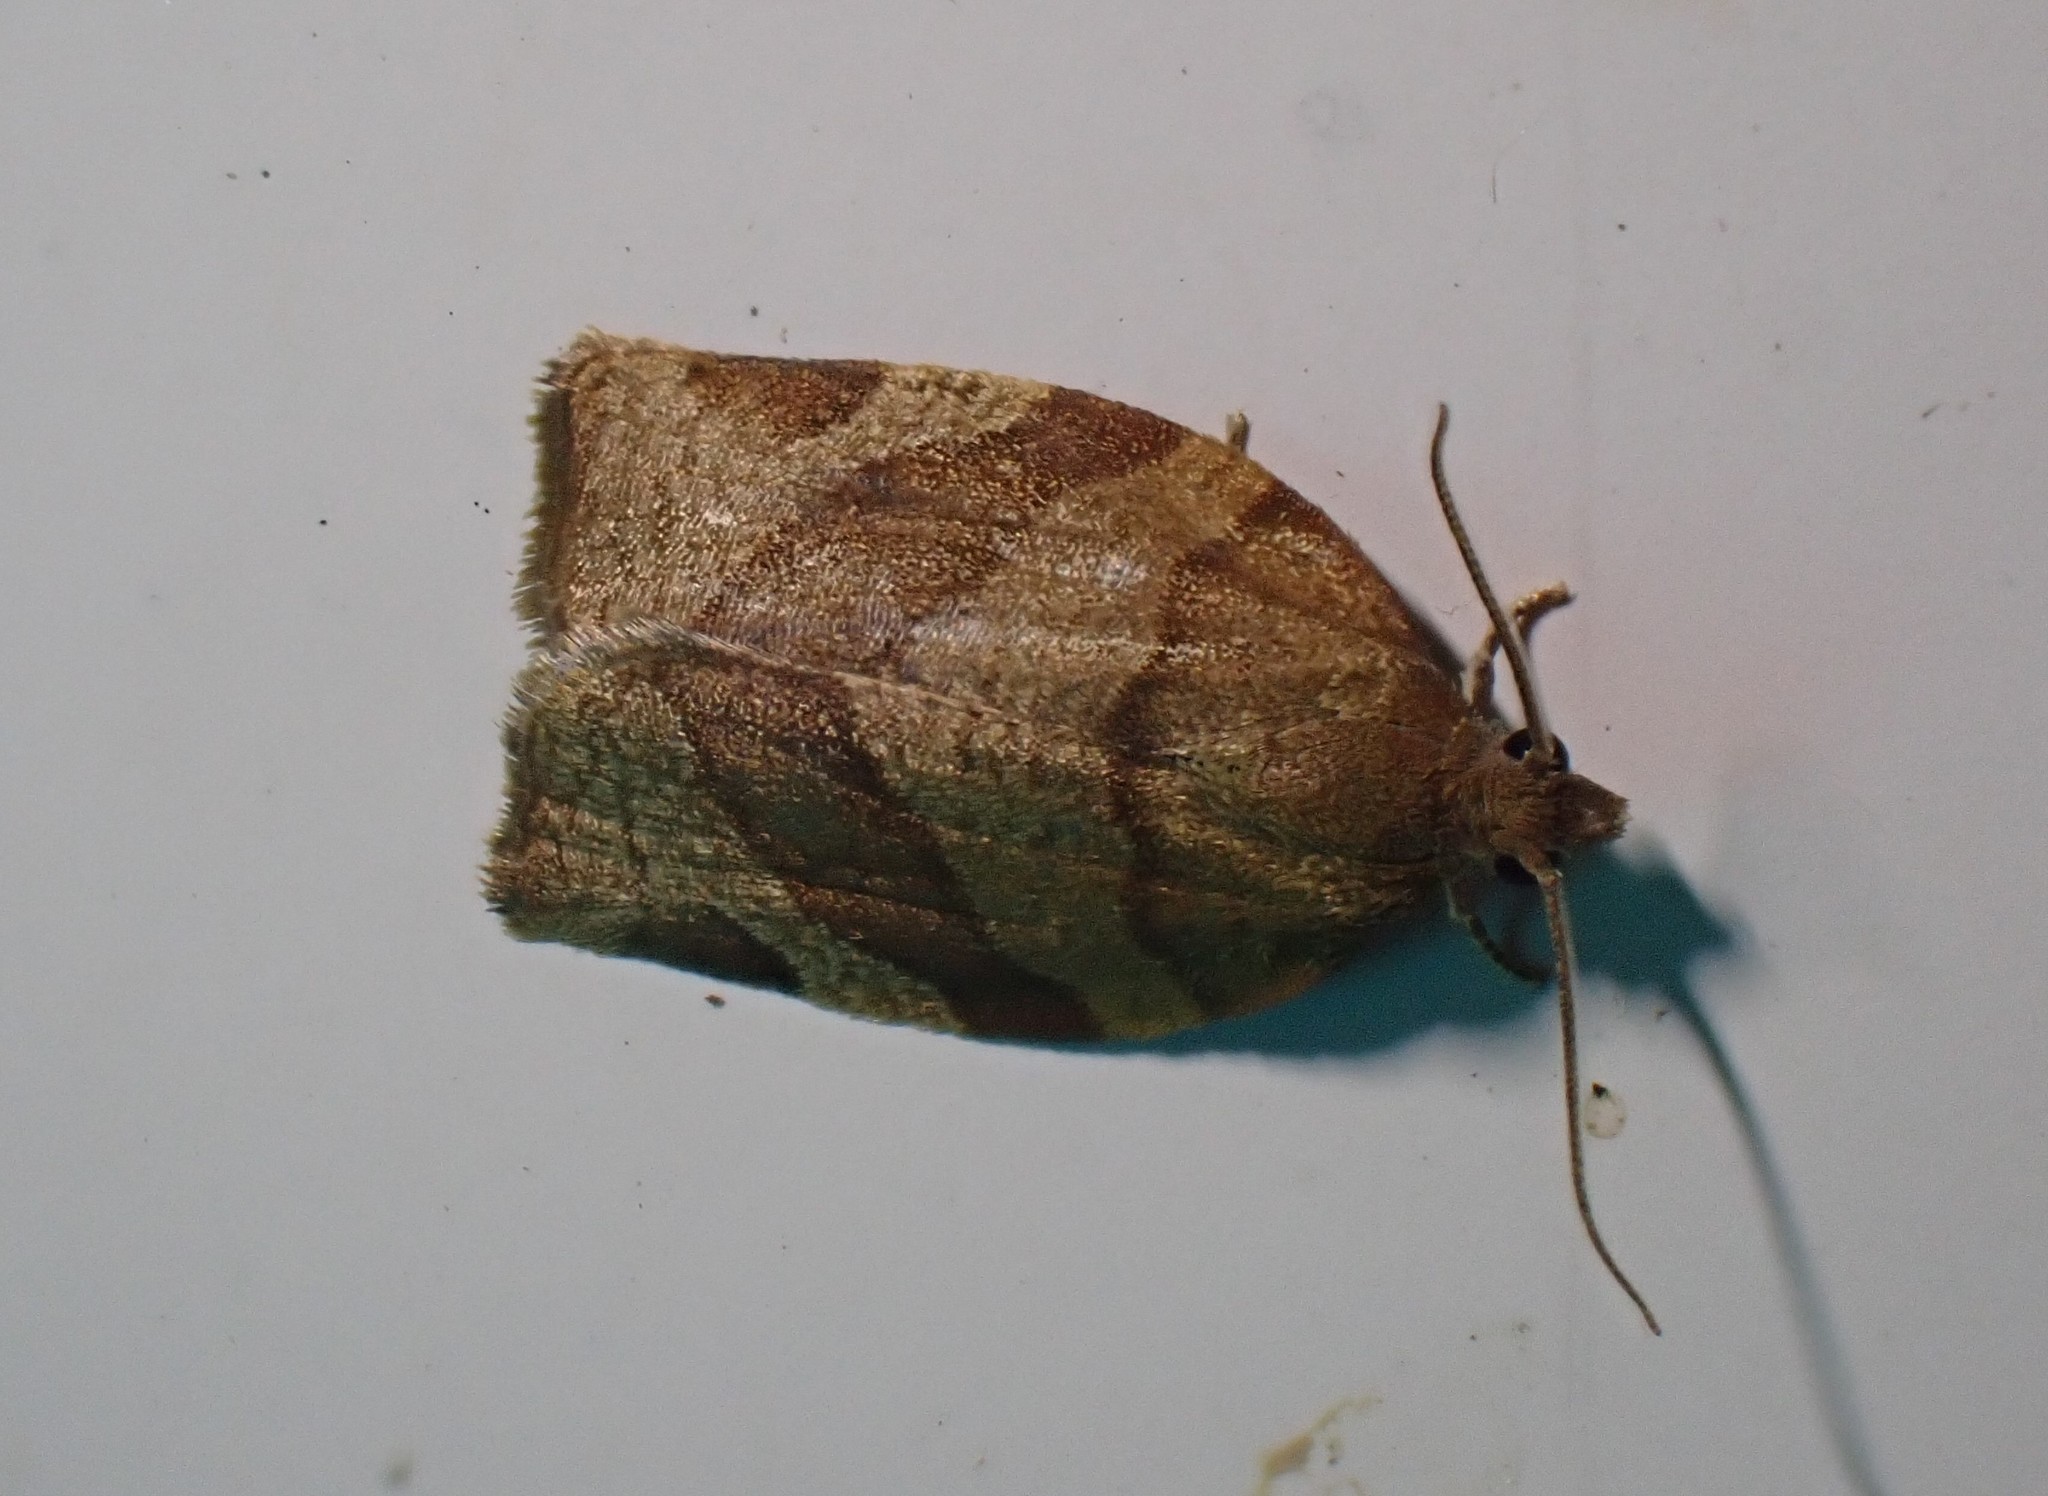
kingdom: Animalia
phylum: Arthropoda
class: Insecta
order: Lepidoptera
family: Tortricidae
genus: Pandemis
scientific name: Pandemis cerasana
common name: Barred fruit-tree tortrix
